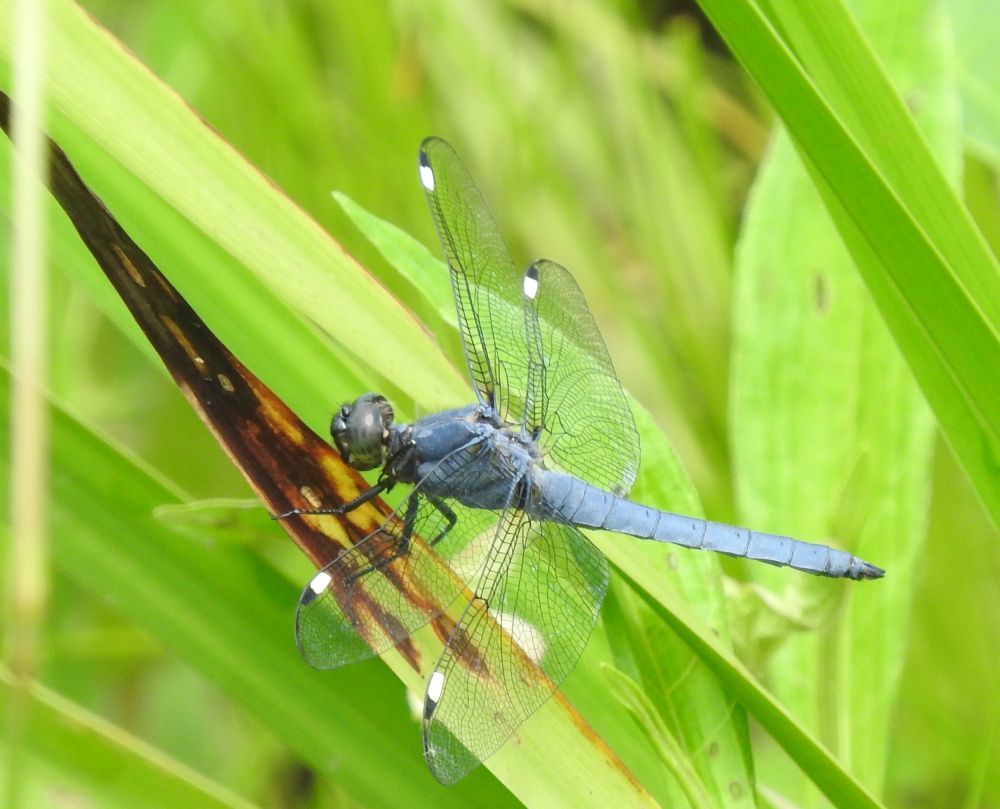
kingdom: Animalia
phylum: Arthropoda
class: Insecta
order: Odonata
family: Libellulidae
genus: Libellula
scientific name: Libellula cyanea
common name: Spangled skimmer
